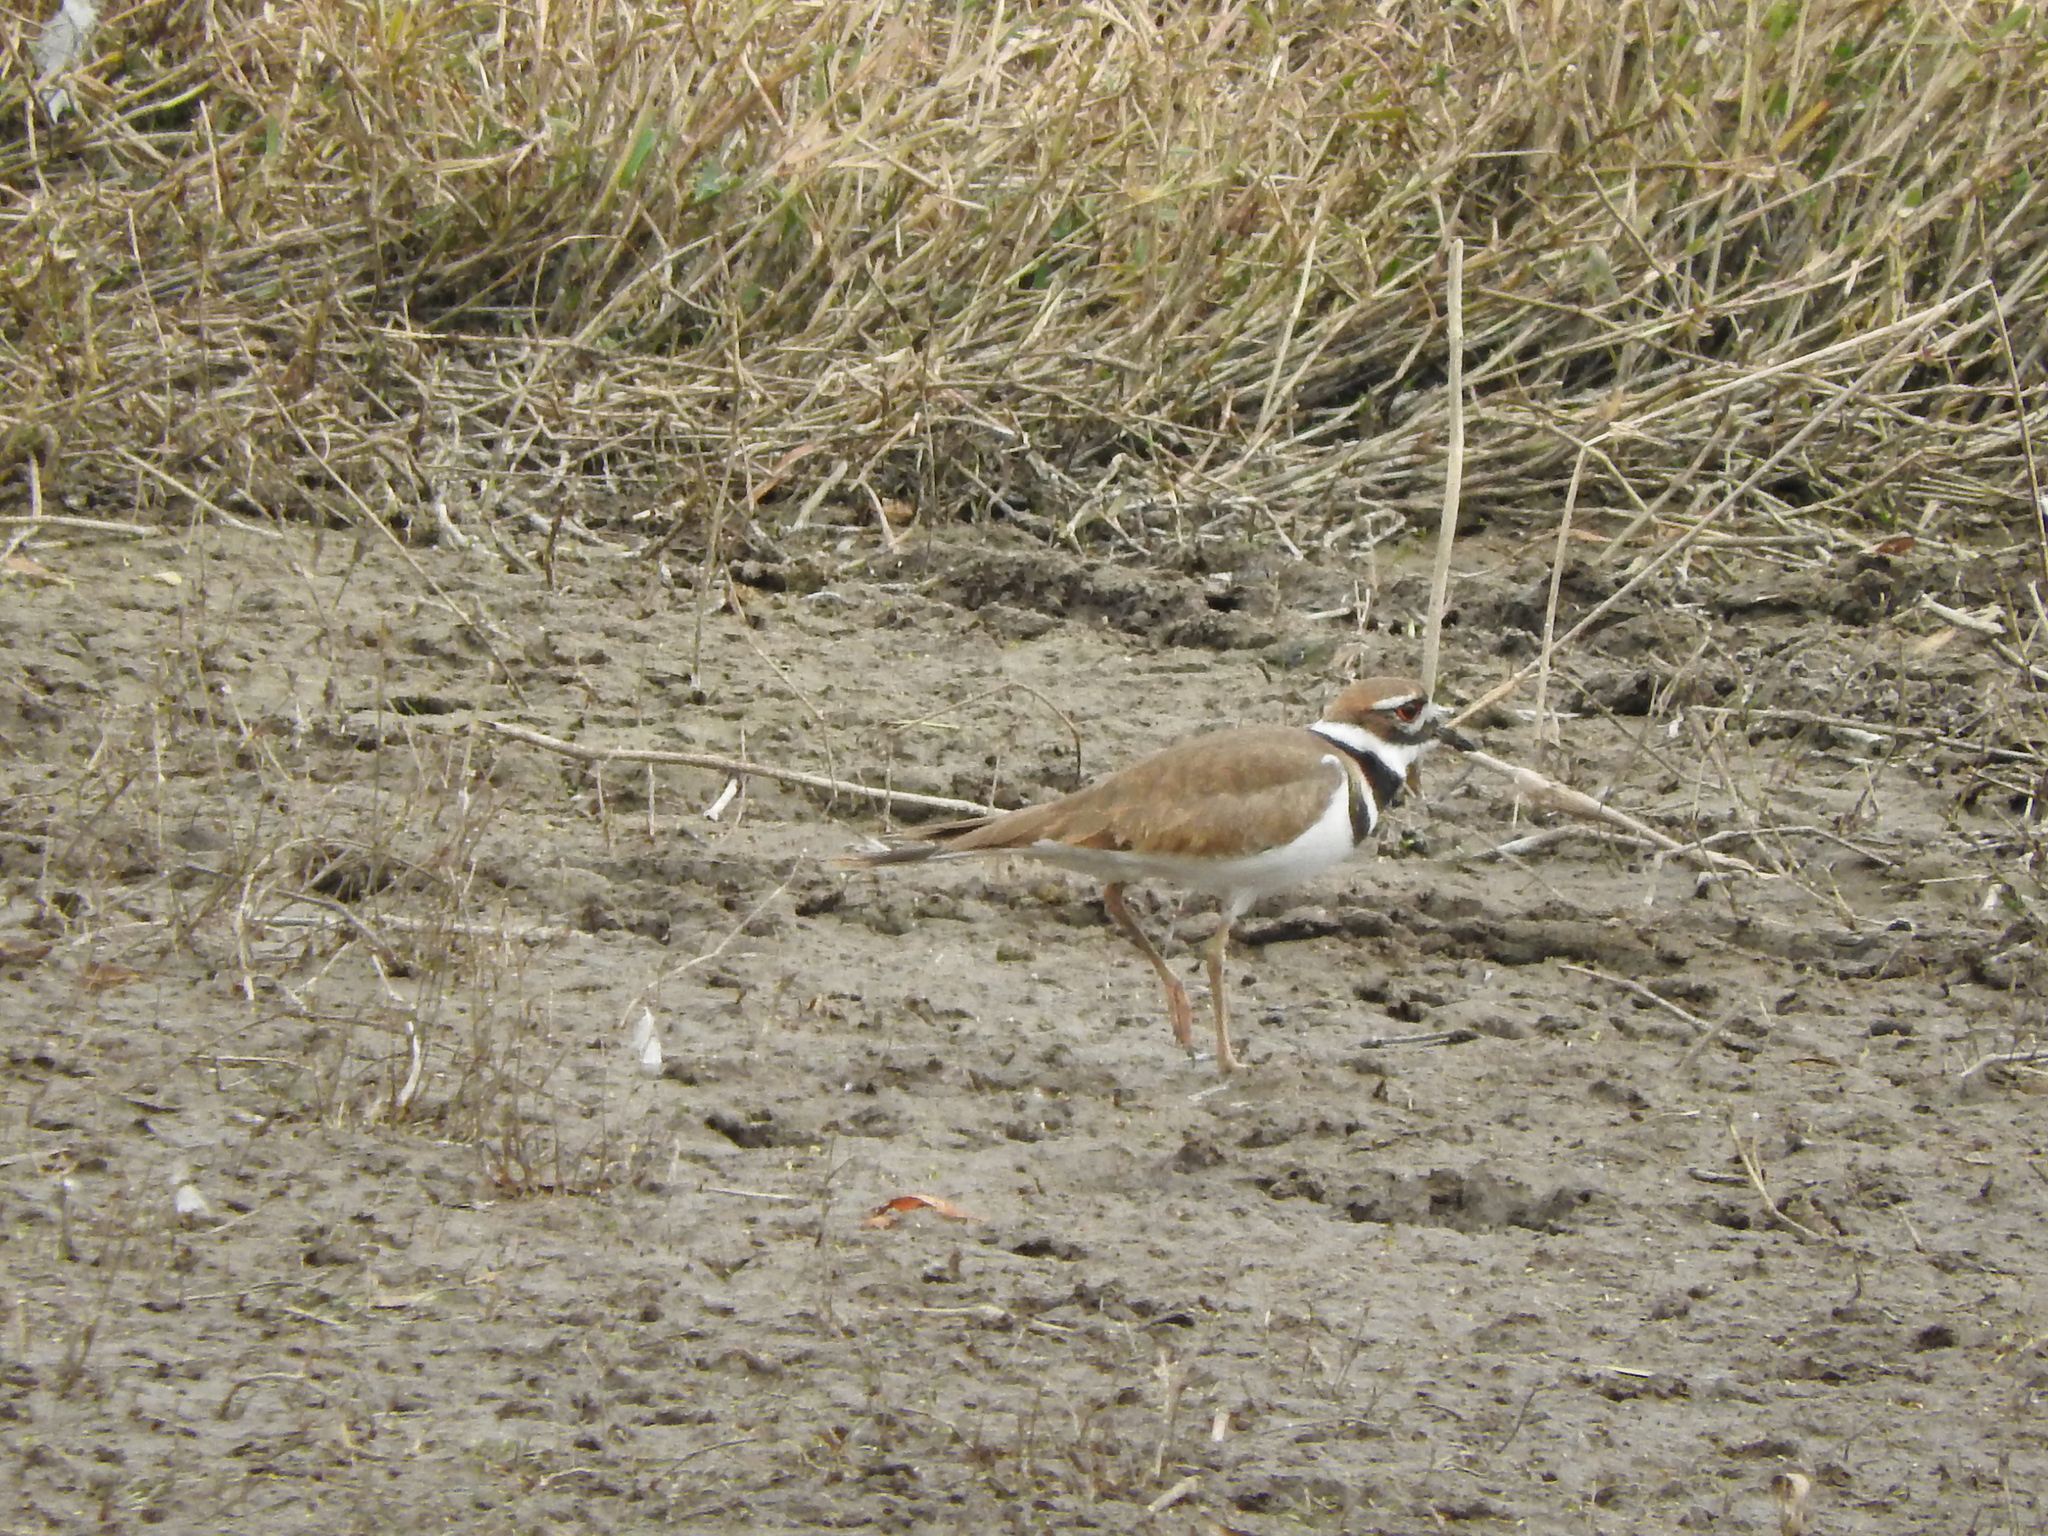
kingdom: Animalia
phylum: Chordata
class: Aves
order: Charadriiformes
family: Charadriidae
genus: Charadrius
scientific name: Charadrius vociferus
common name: Killdeer
